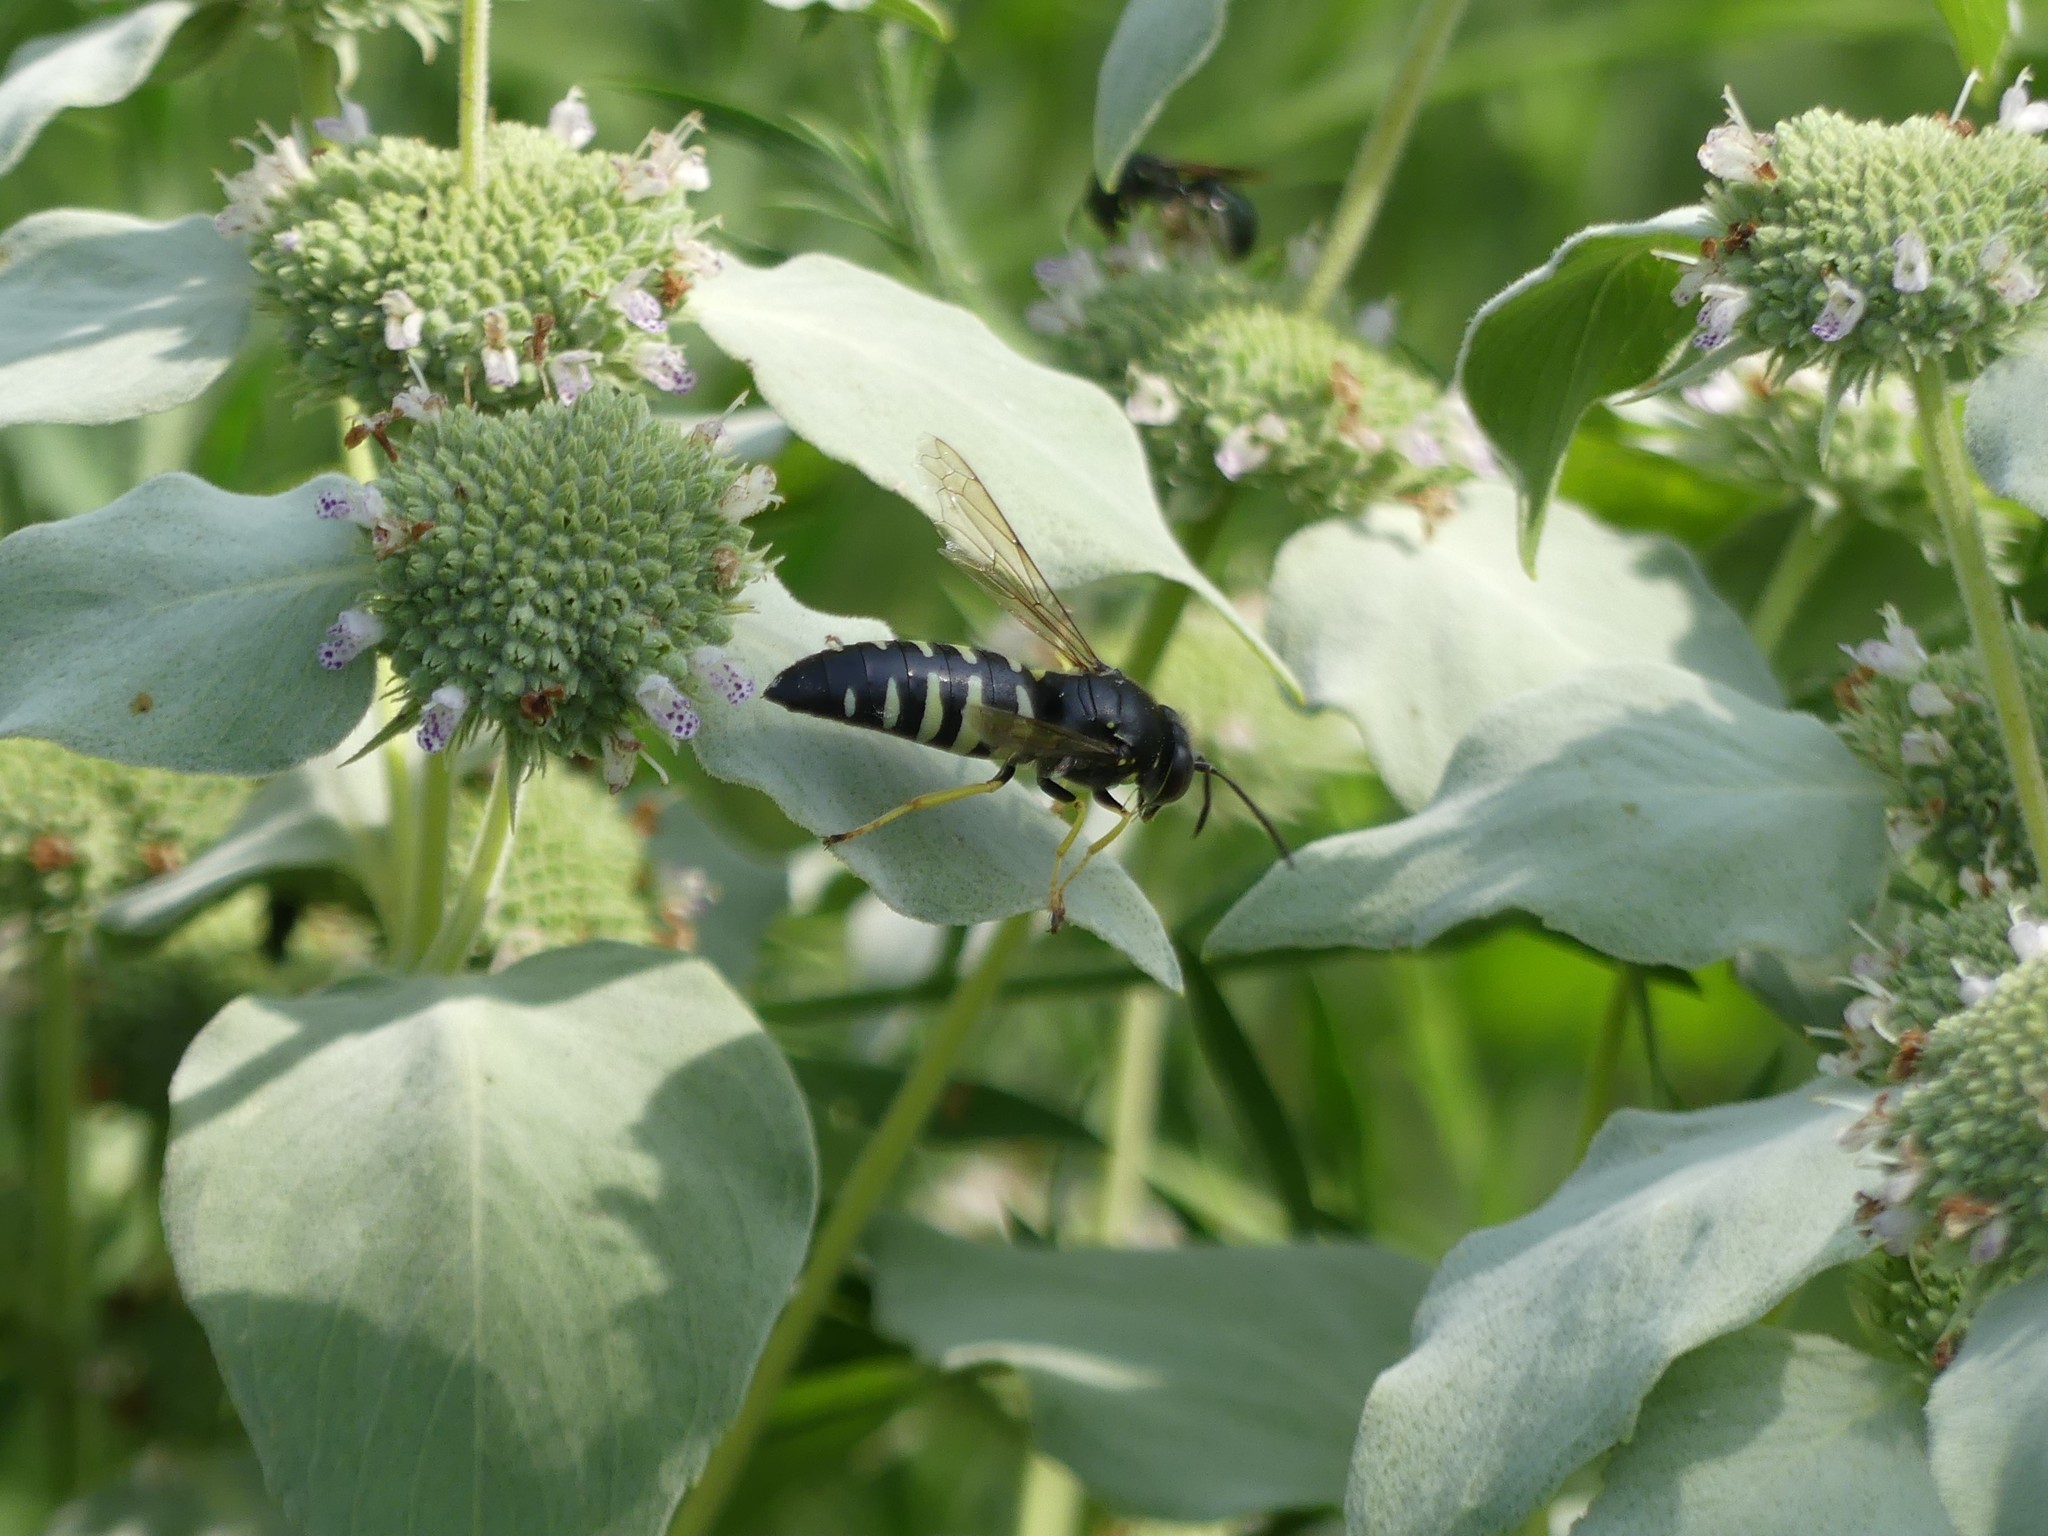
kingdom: Animalia
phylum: Arthropoda
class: Insecta
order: Hymenoptera
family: Crabronidae
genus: Bicyrtes
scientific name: Bicyrtes quadrifasciatus
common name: Four-banded stink bug hunter wasp
